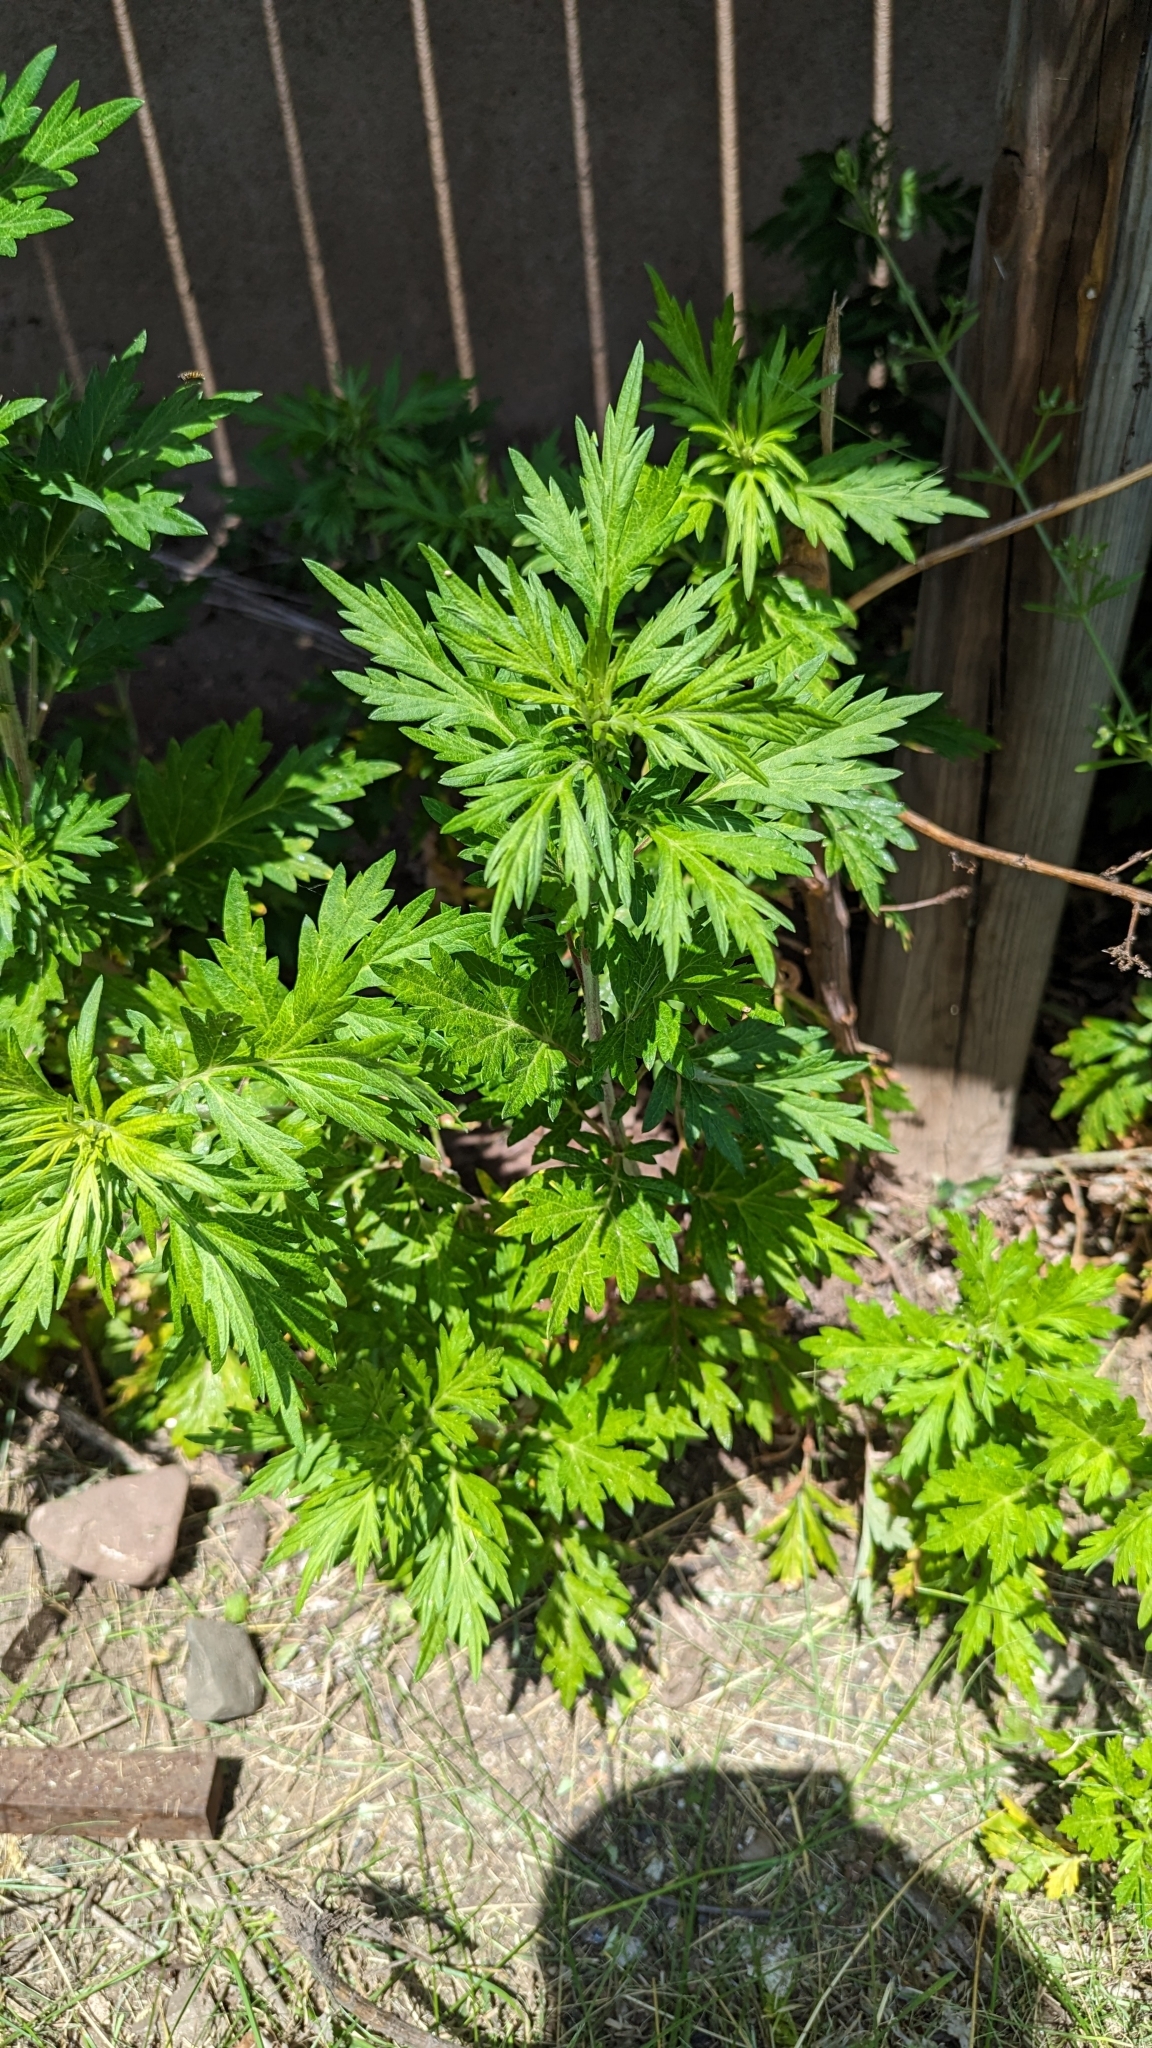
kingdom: Plantae
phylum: Tracheophyta
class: Magnoliopsida
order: Asterales
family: Asteraceae
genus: Artemisia
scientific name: Artemisia vulgaris
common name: Mugwort
